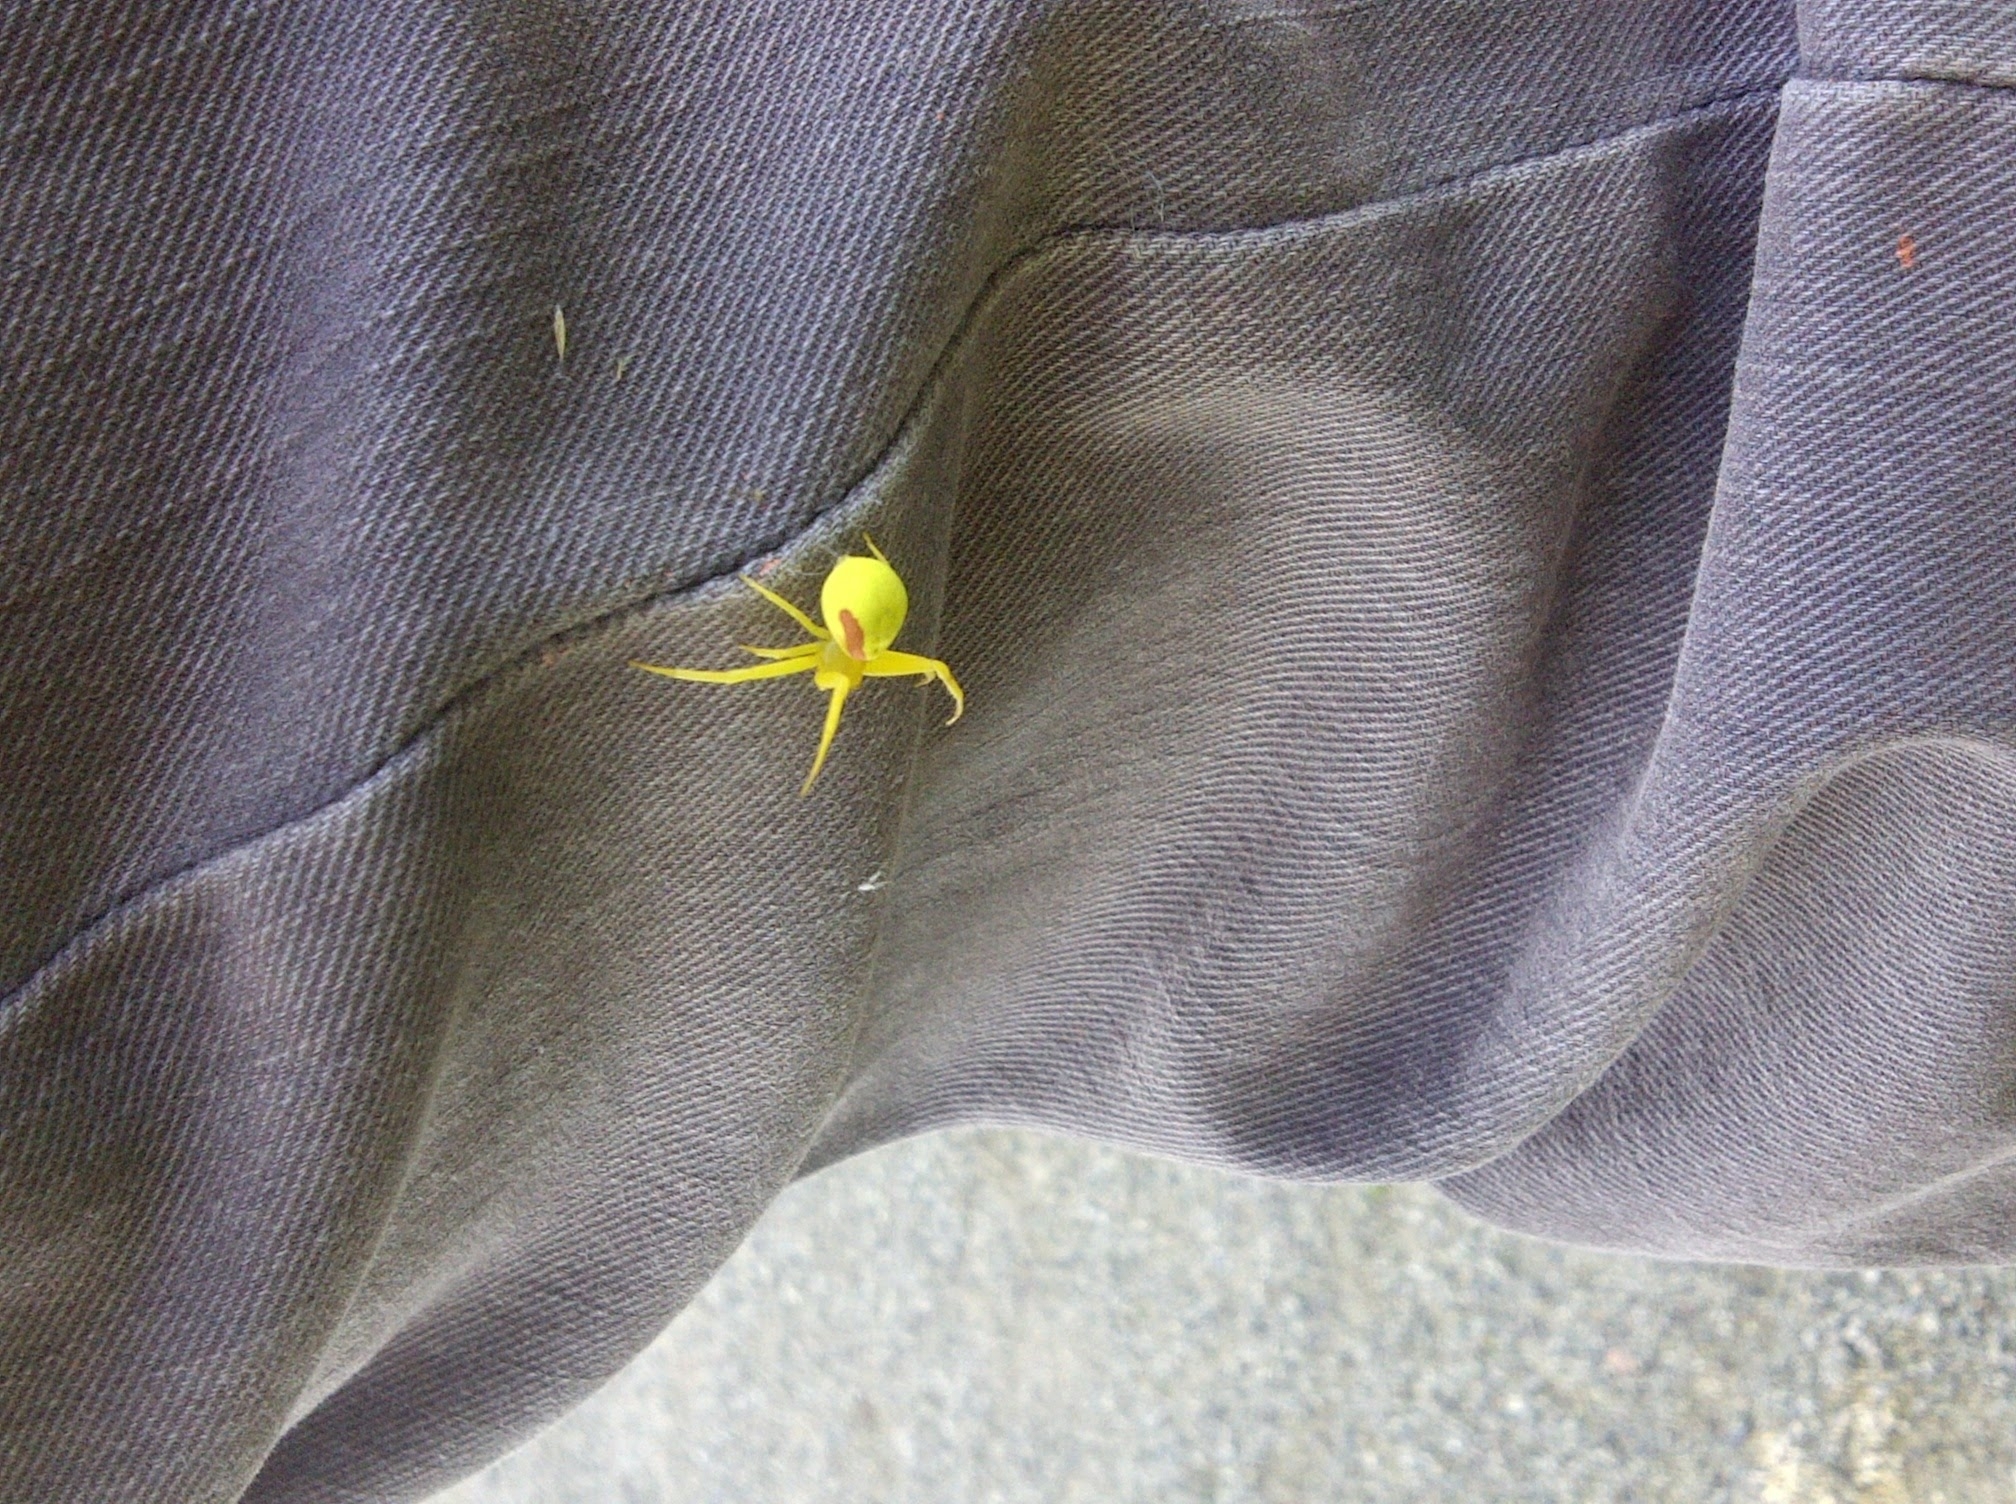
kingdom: Animalia
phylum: Arthropoda
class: Arachnida
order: Araneae
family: Thomisidae
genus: Misumena
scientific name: Misumena vatia
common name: Goldenrod crab spider
